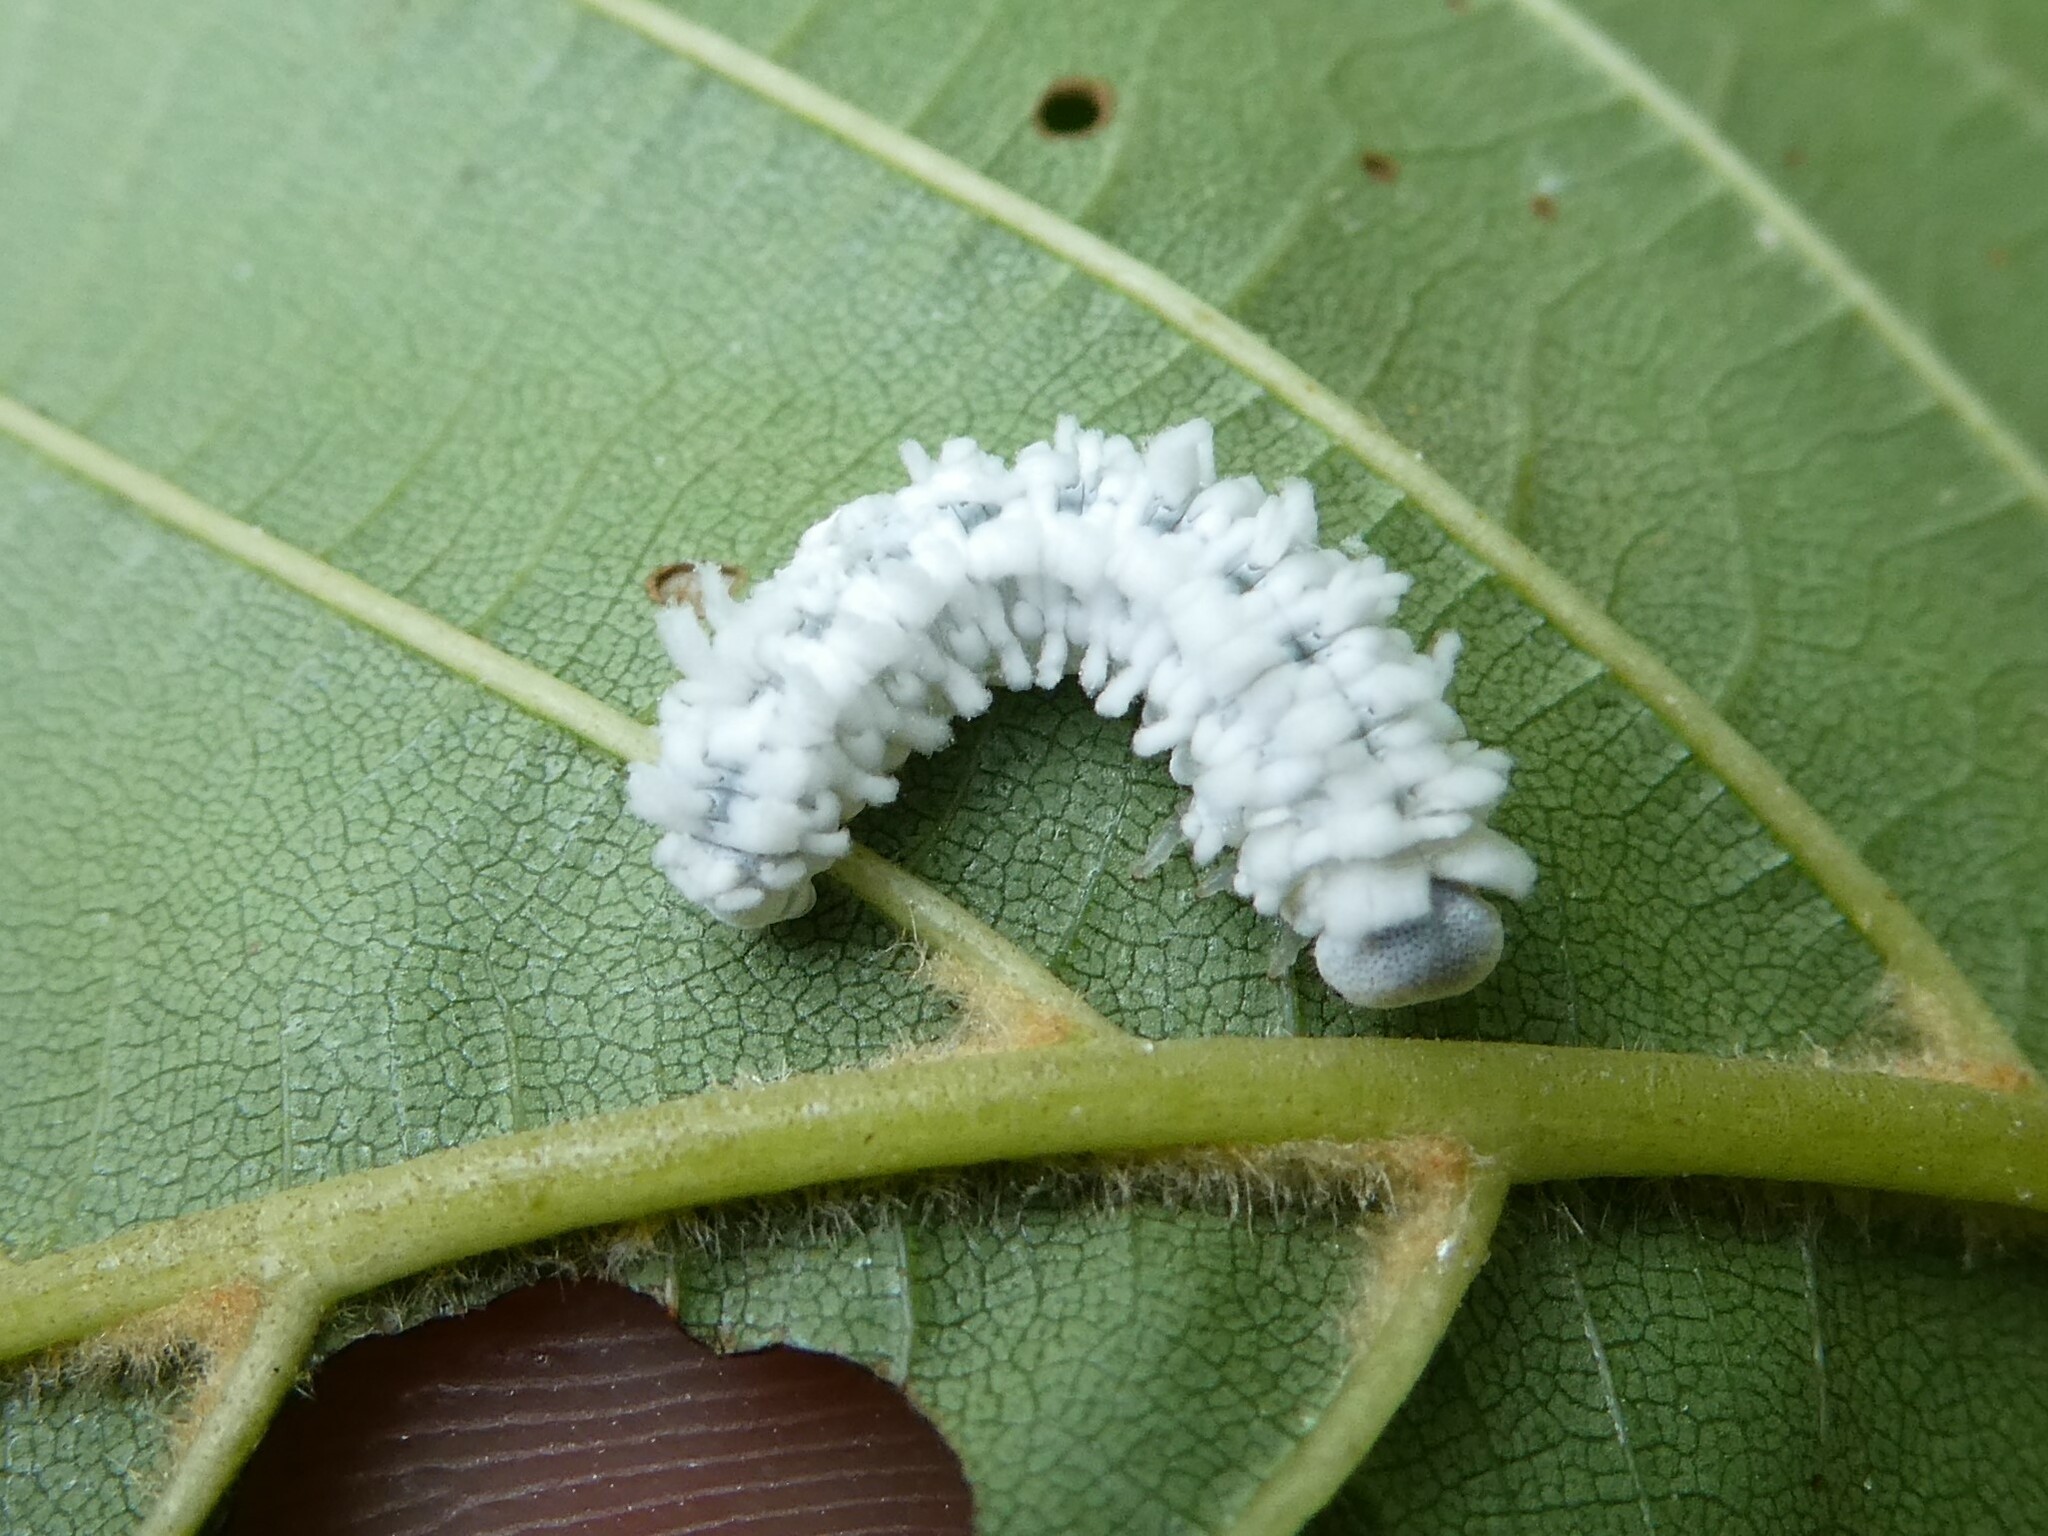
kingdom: Animalia
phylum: Arthropoda
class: Insecta
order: Hymenoptera
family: Tenthredinidae
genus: Eriocampa
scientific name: Eriocampa ovata
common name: Alder wooly sawfly
